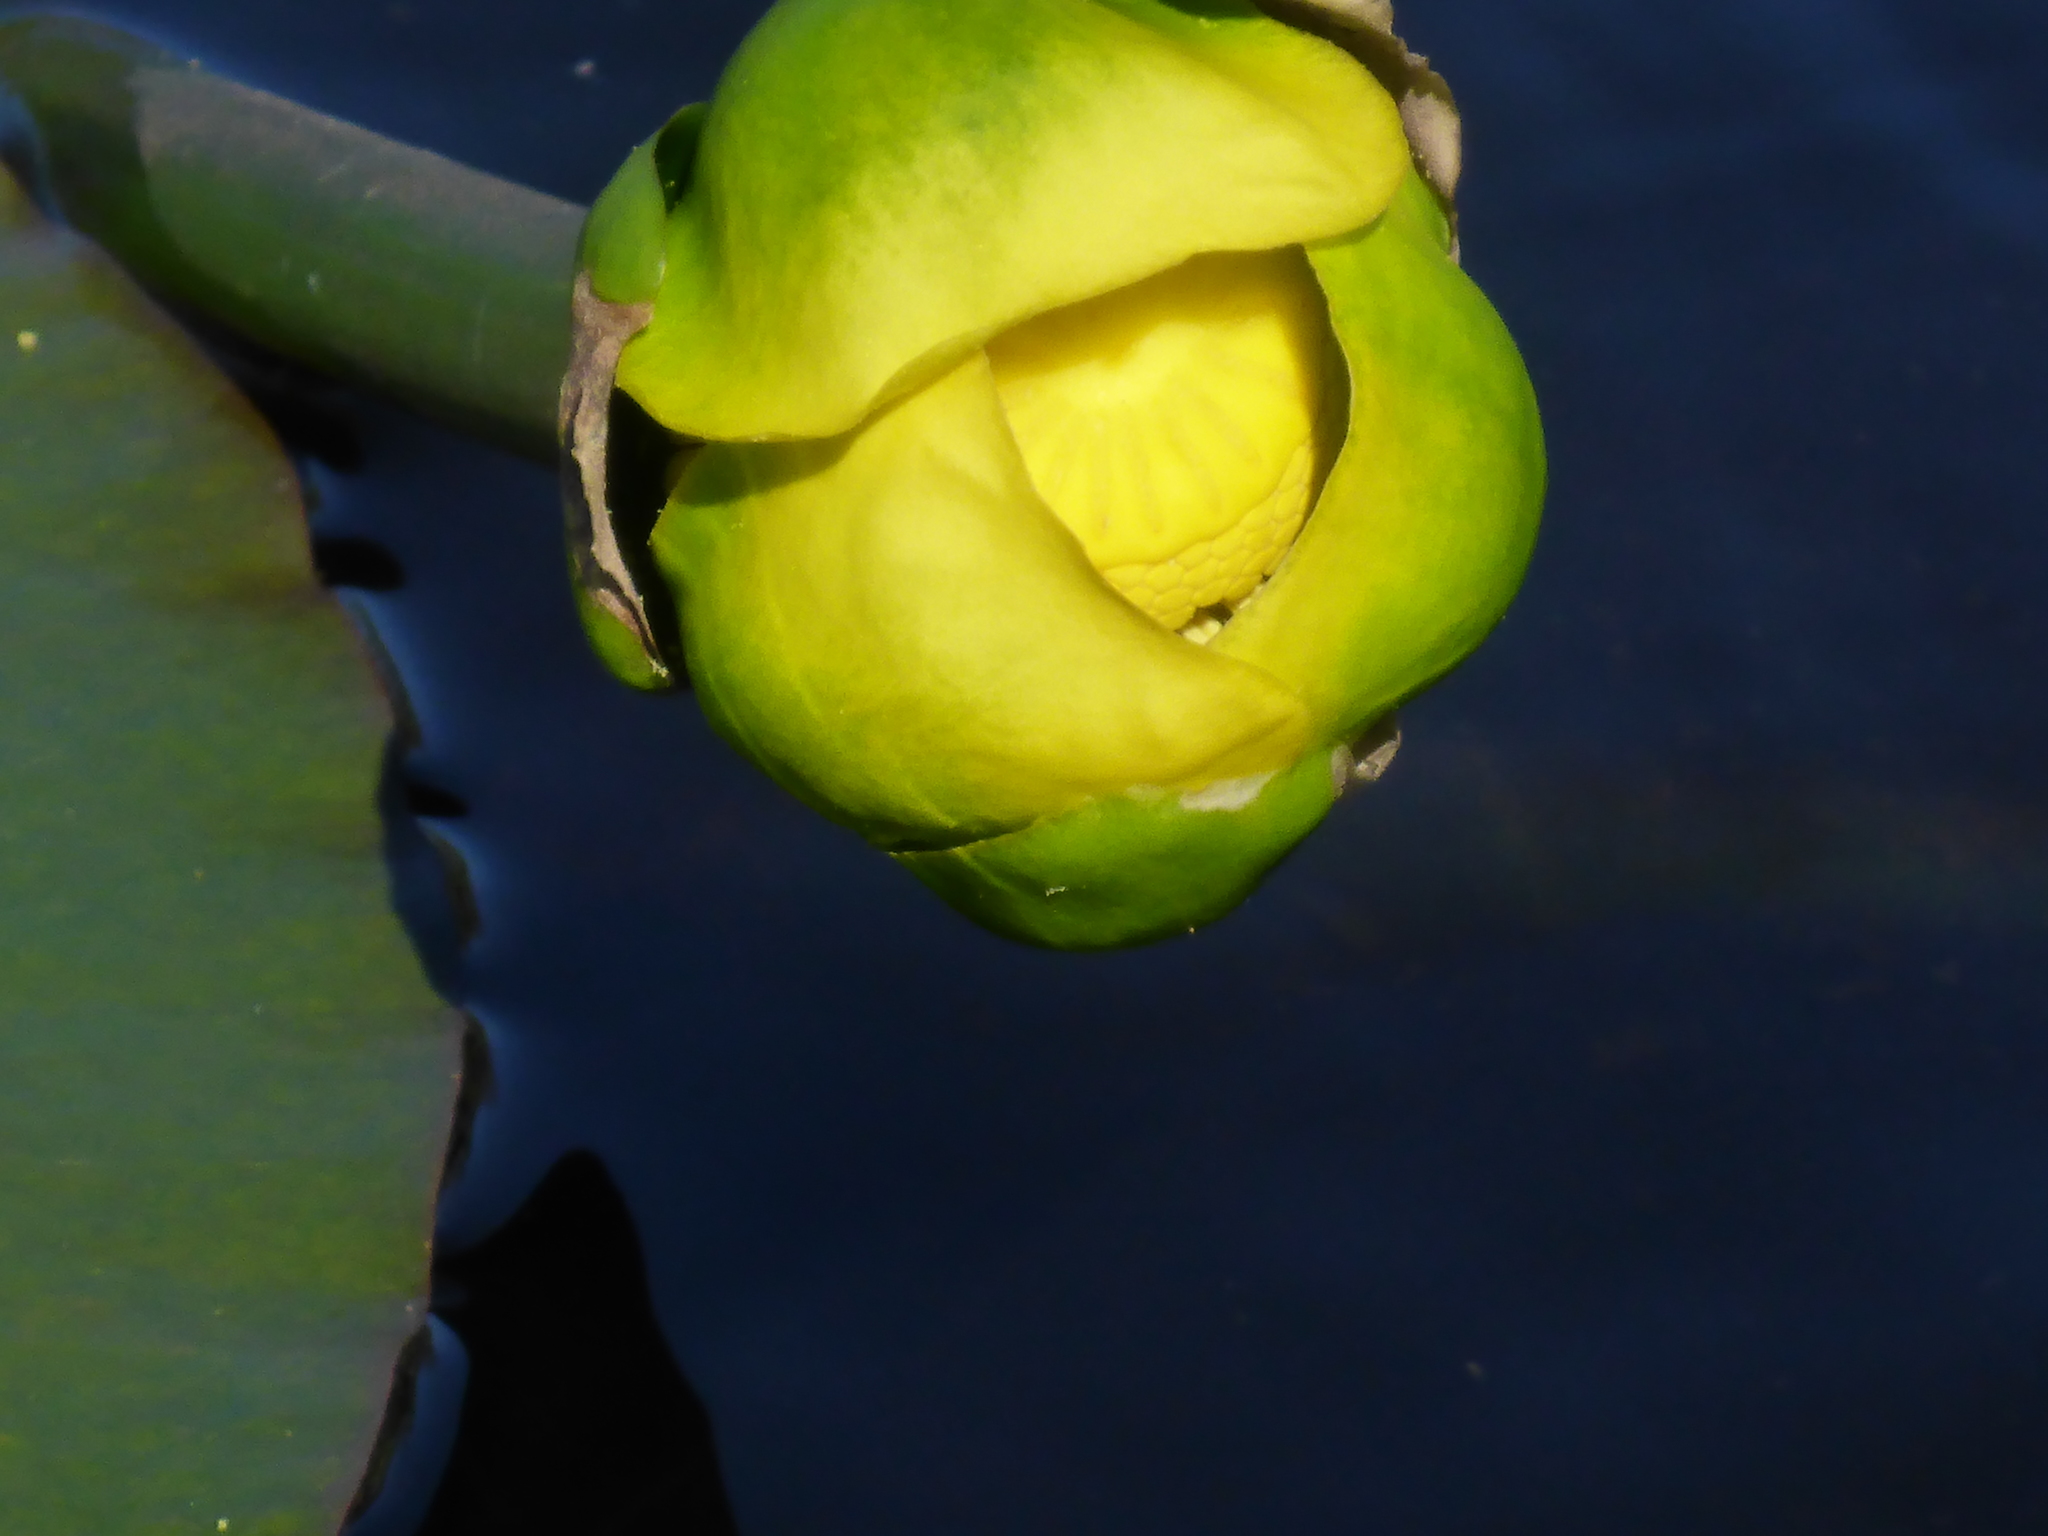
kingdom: Plantae
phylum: Tracheophyta
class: Magnoliopsida
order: Nymphaeales
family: Nymphaeaceae
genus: Nuphar
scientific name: Nuphar advena
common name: Spatter-dock
